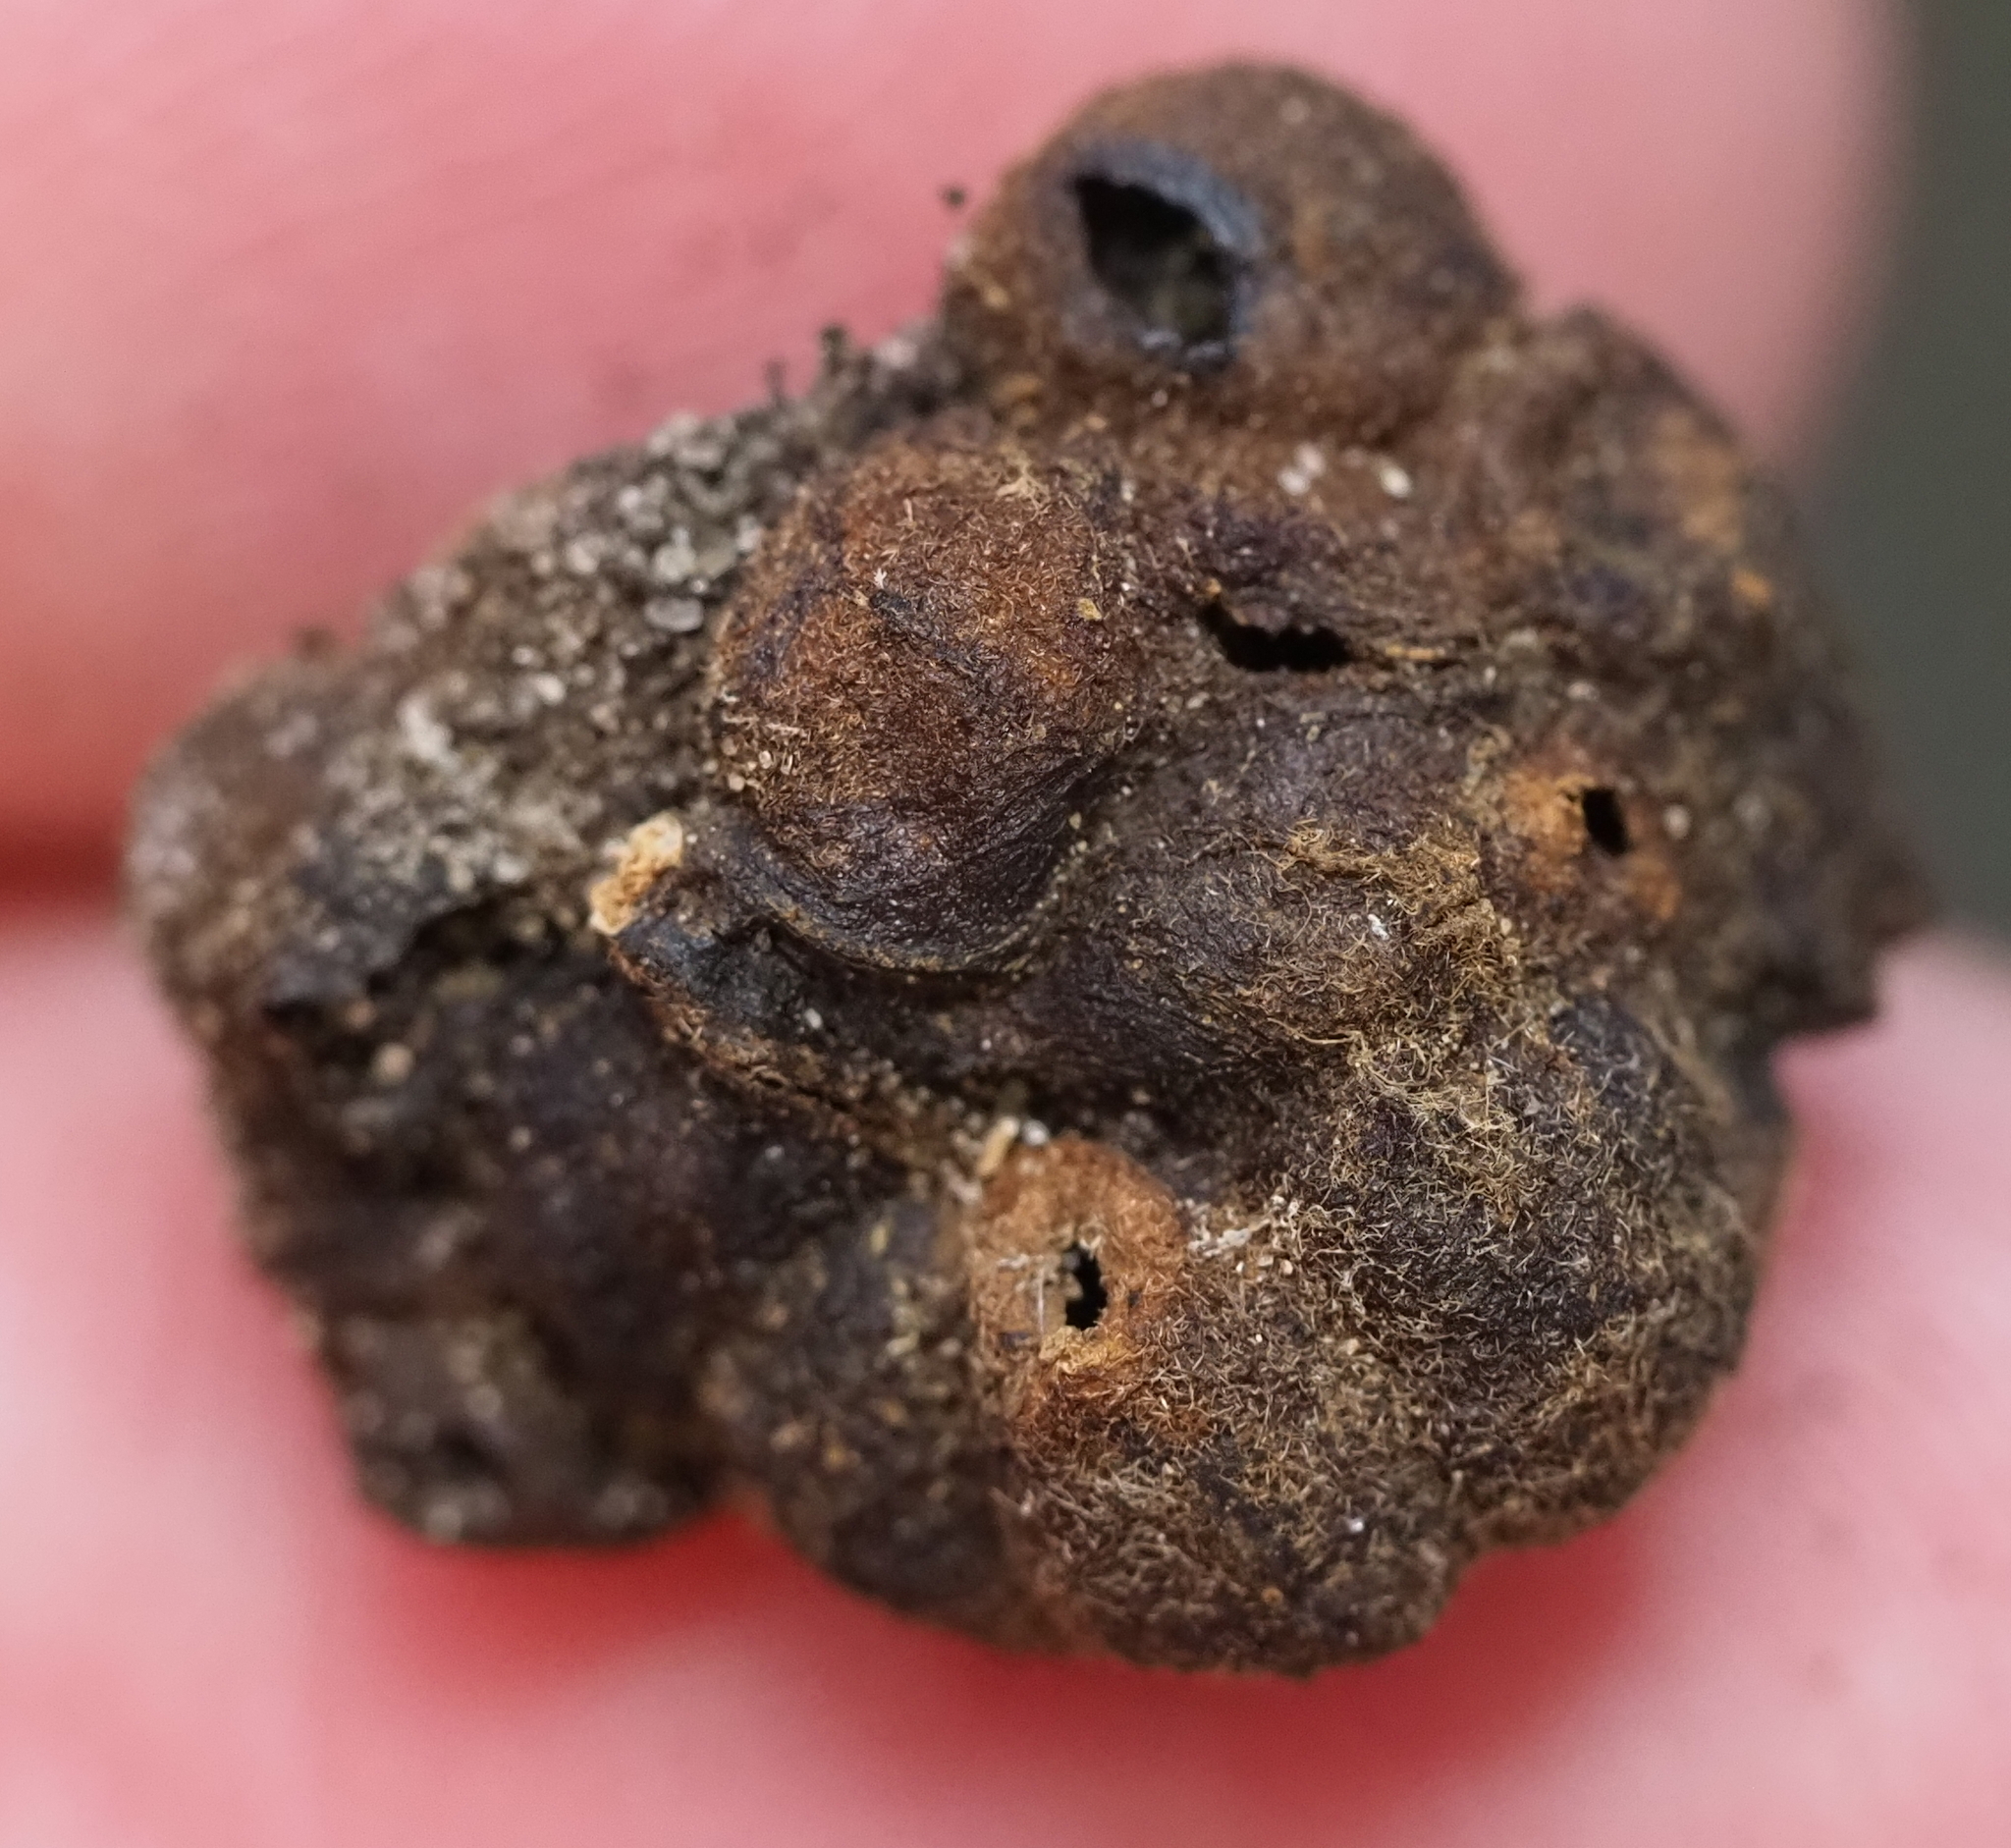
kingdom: Animalia
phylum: Arthropoda
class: Insecta
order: Hymenoptera
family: Cynipidae
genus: Belonocnema
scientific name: Belonocnema kinseyi
